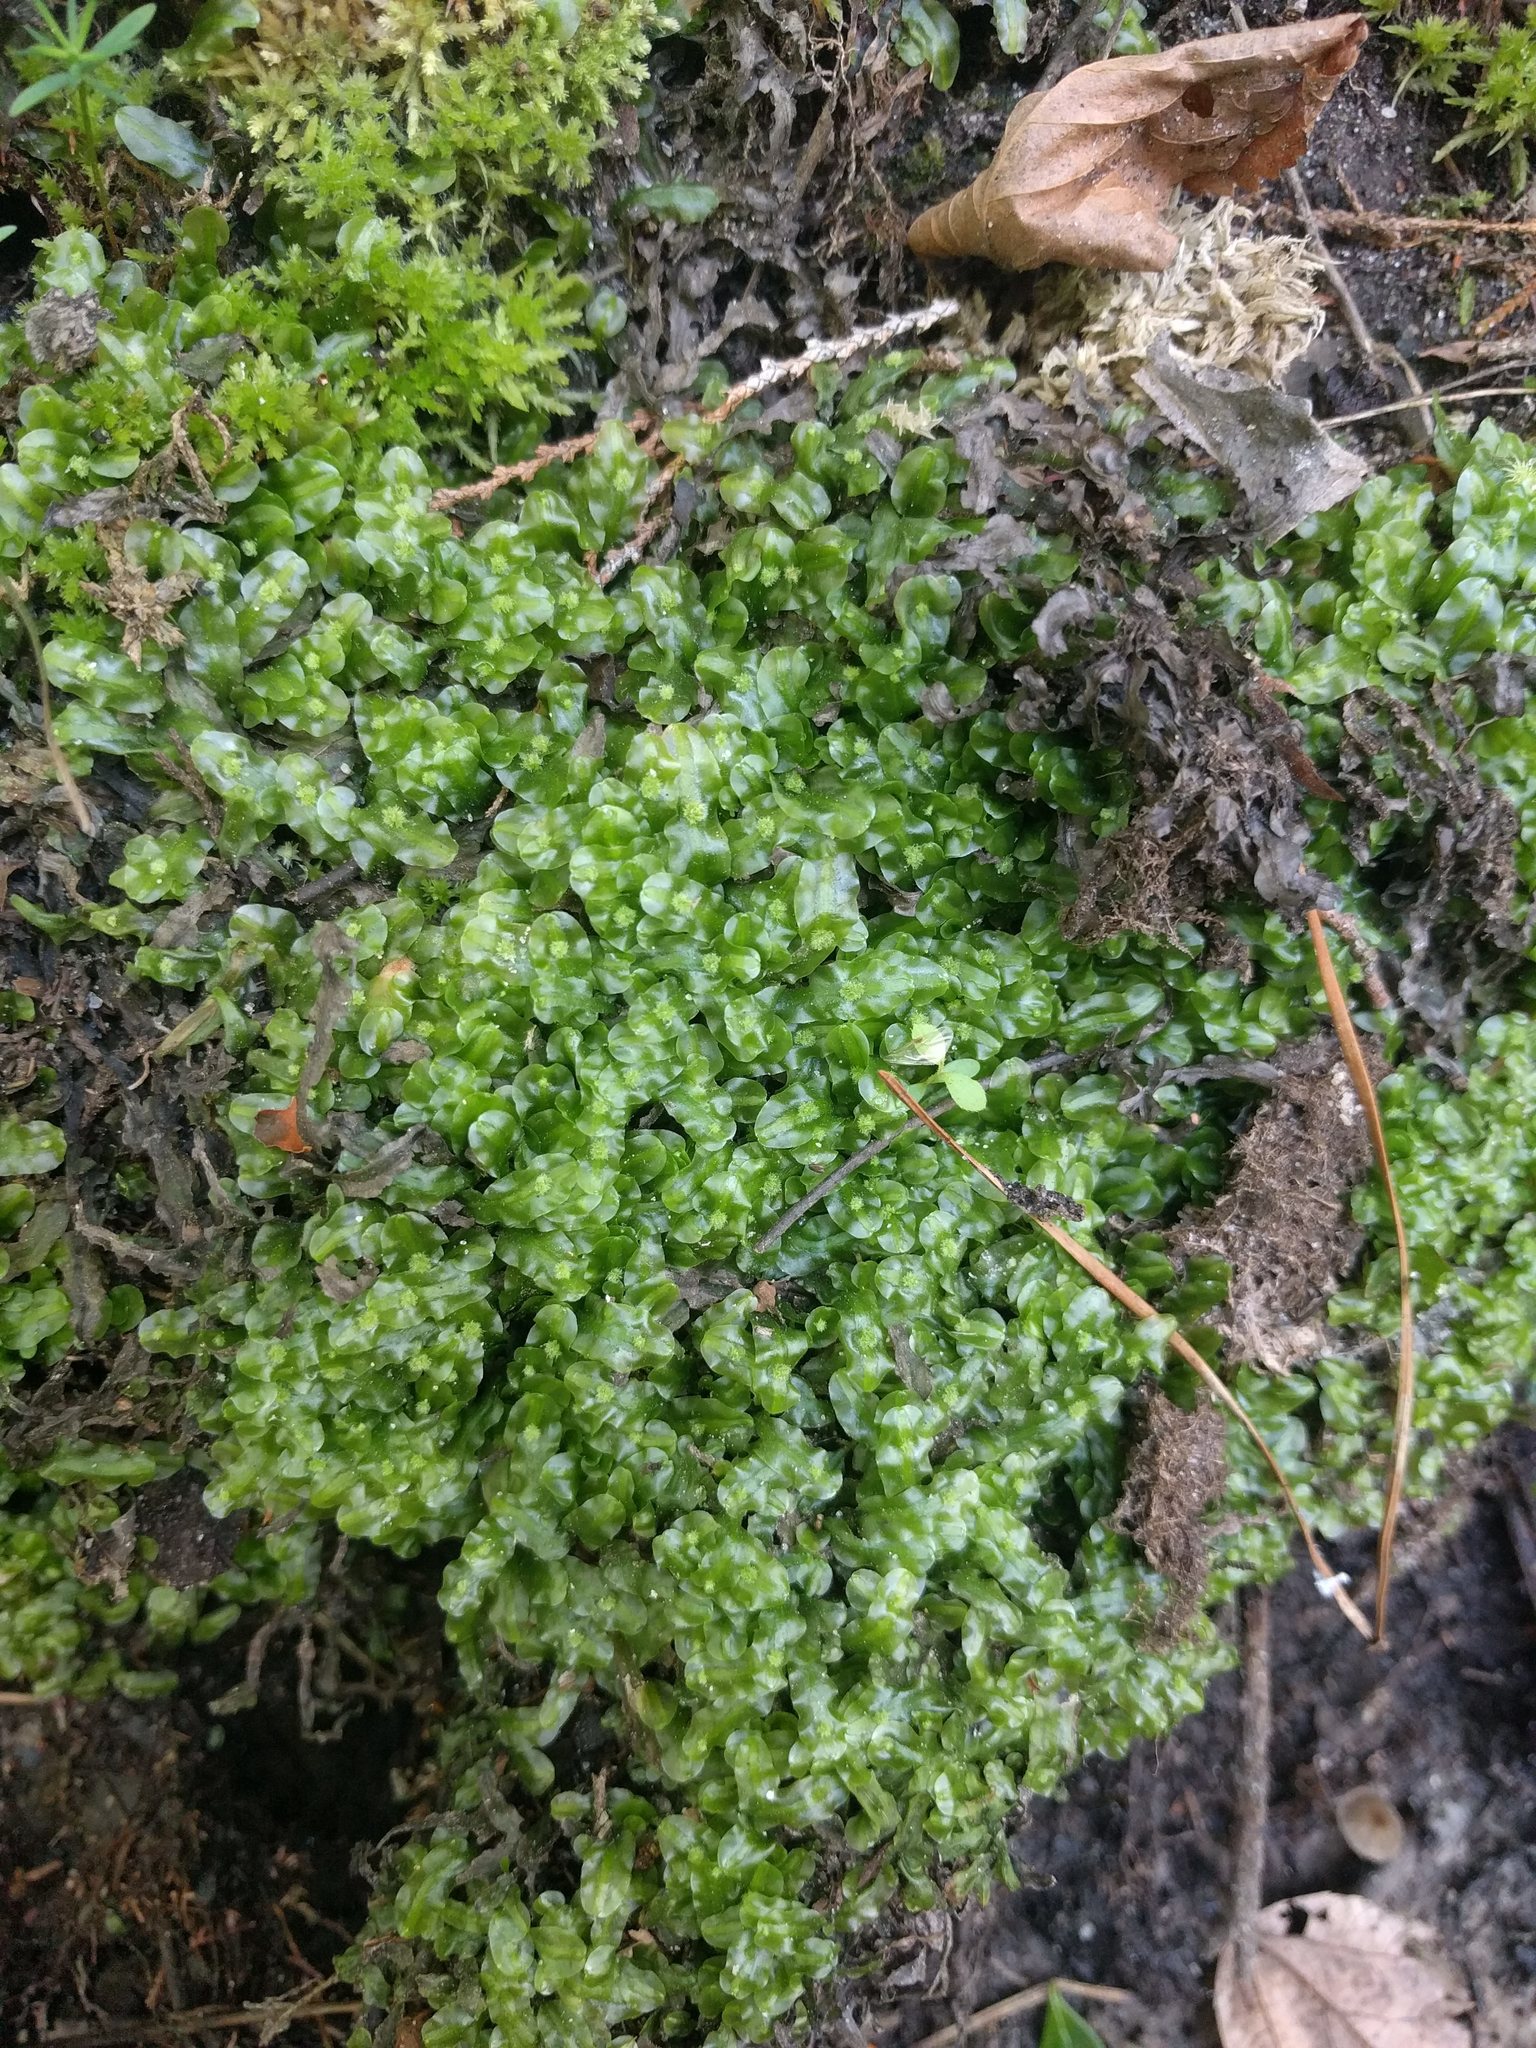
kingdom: Plantae
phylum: Marchantiophyta
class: Jungermanniopsida
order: Pallaviciniales
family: Pallaviciniaceae
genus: Pallavicinia
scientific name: Pallavicinia lyellii
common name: Veilwort
